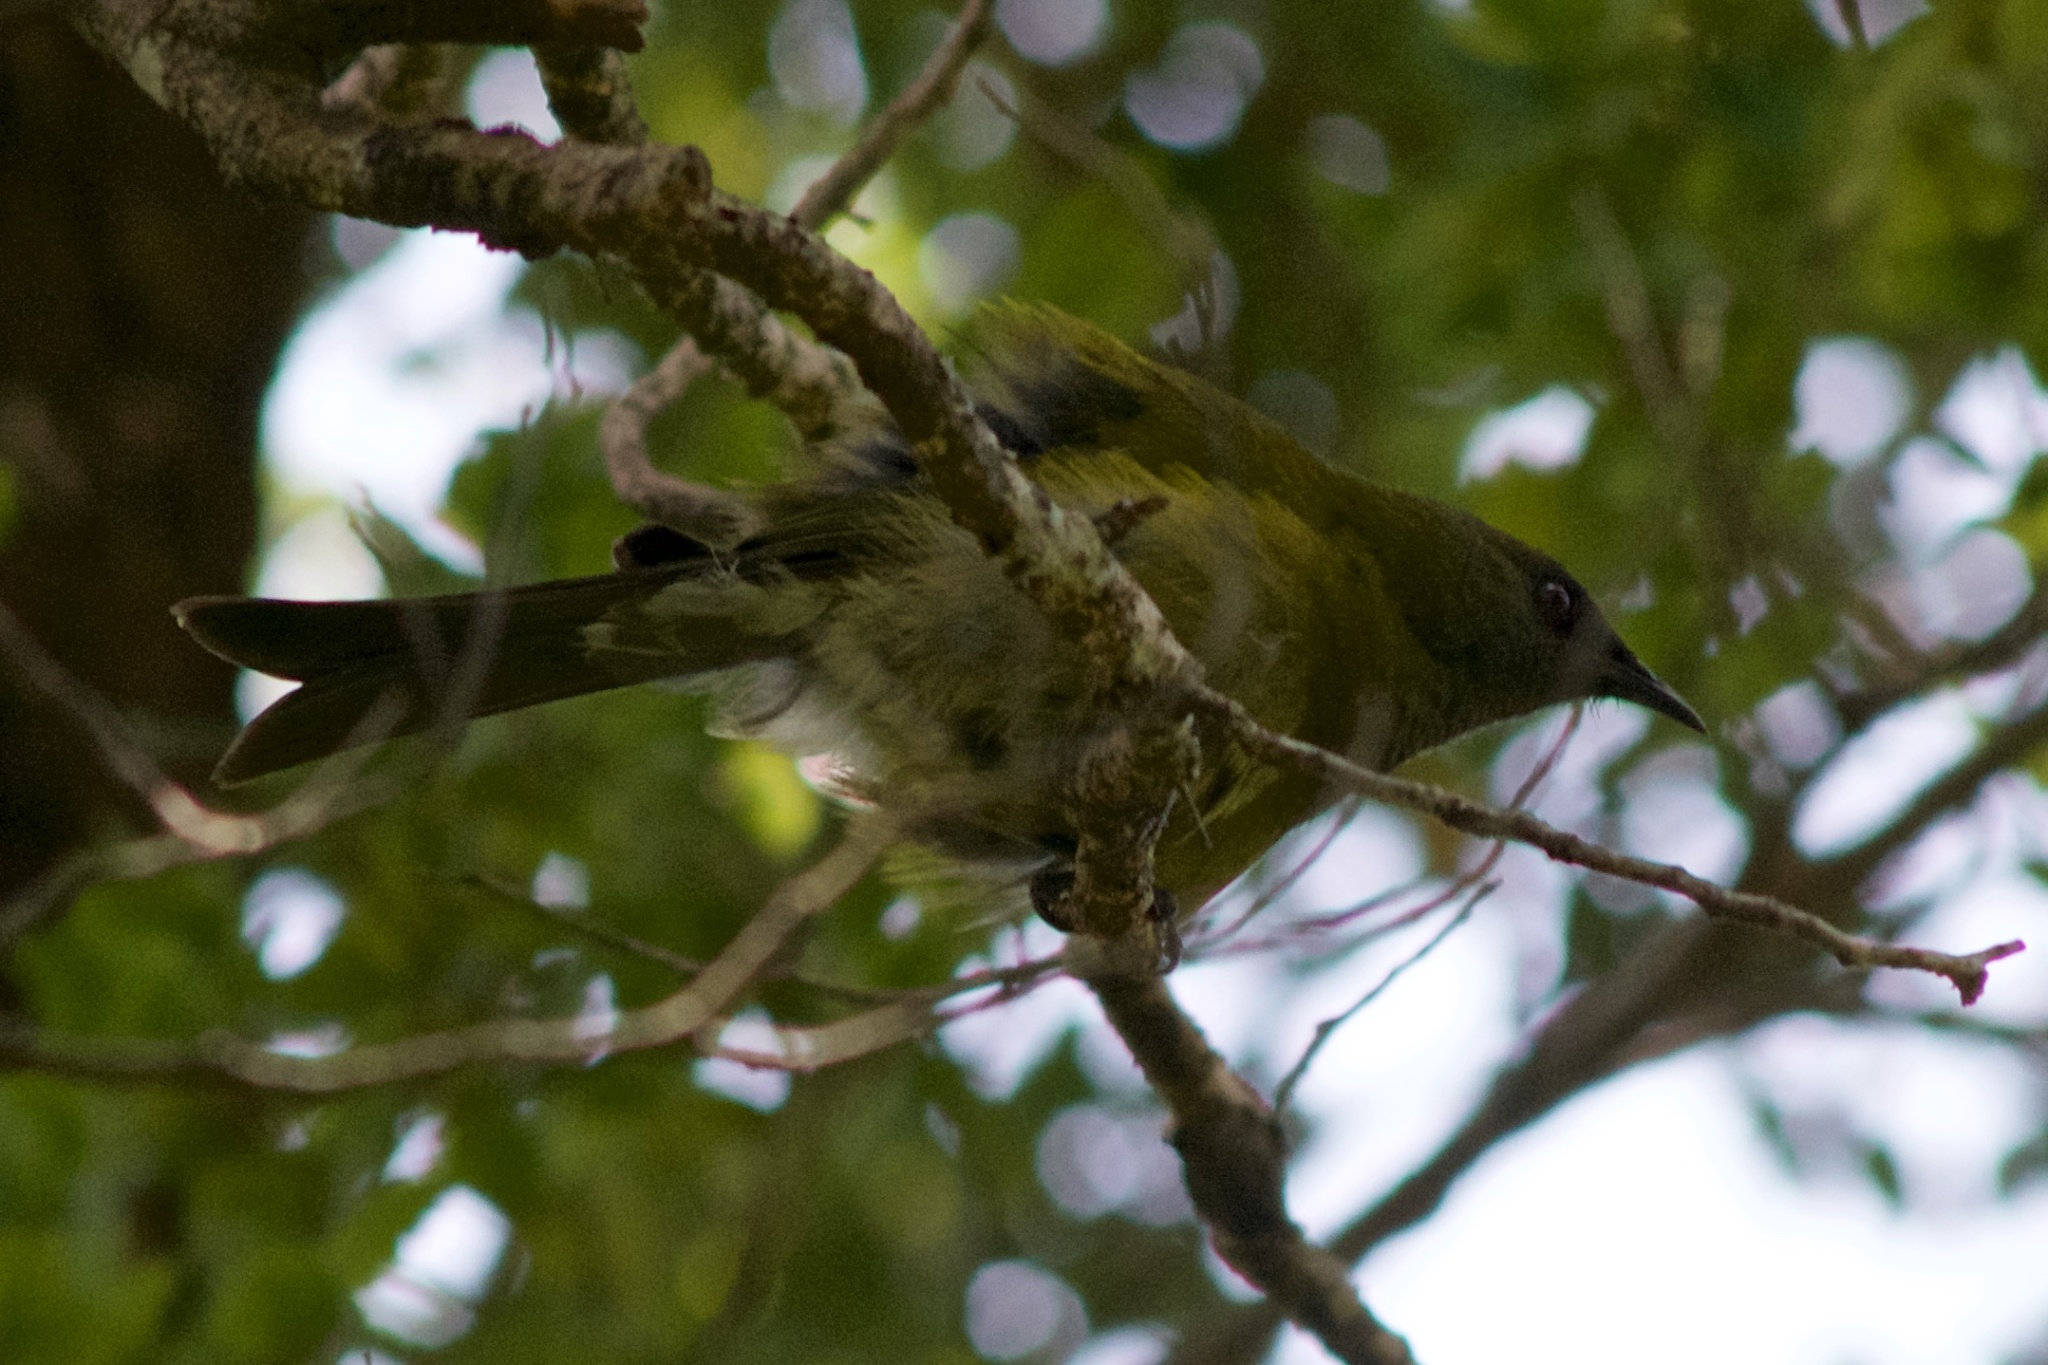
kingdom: Animalia
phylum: Chordata
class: Aves
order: Passeriformes
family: Meliphagidae
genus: Anthornis
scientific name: Anthornis melanura
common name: New zealand bellbird
